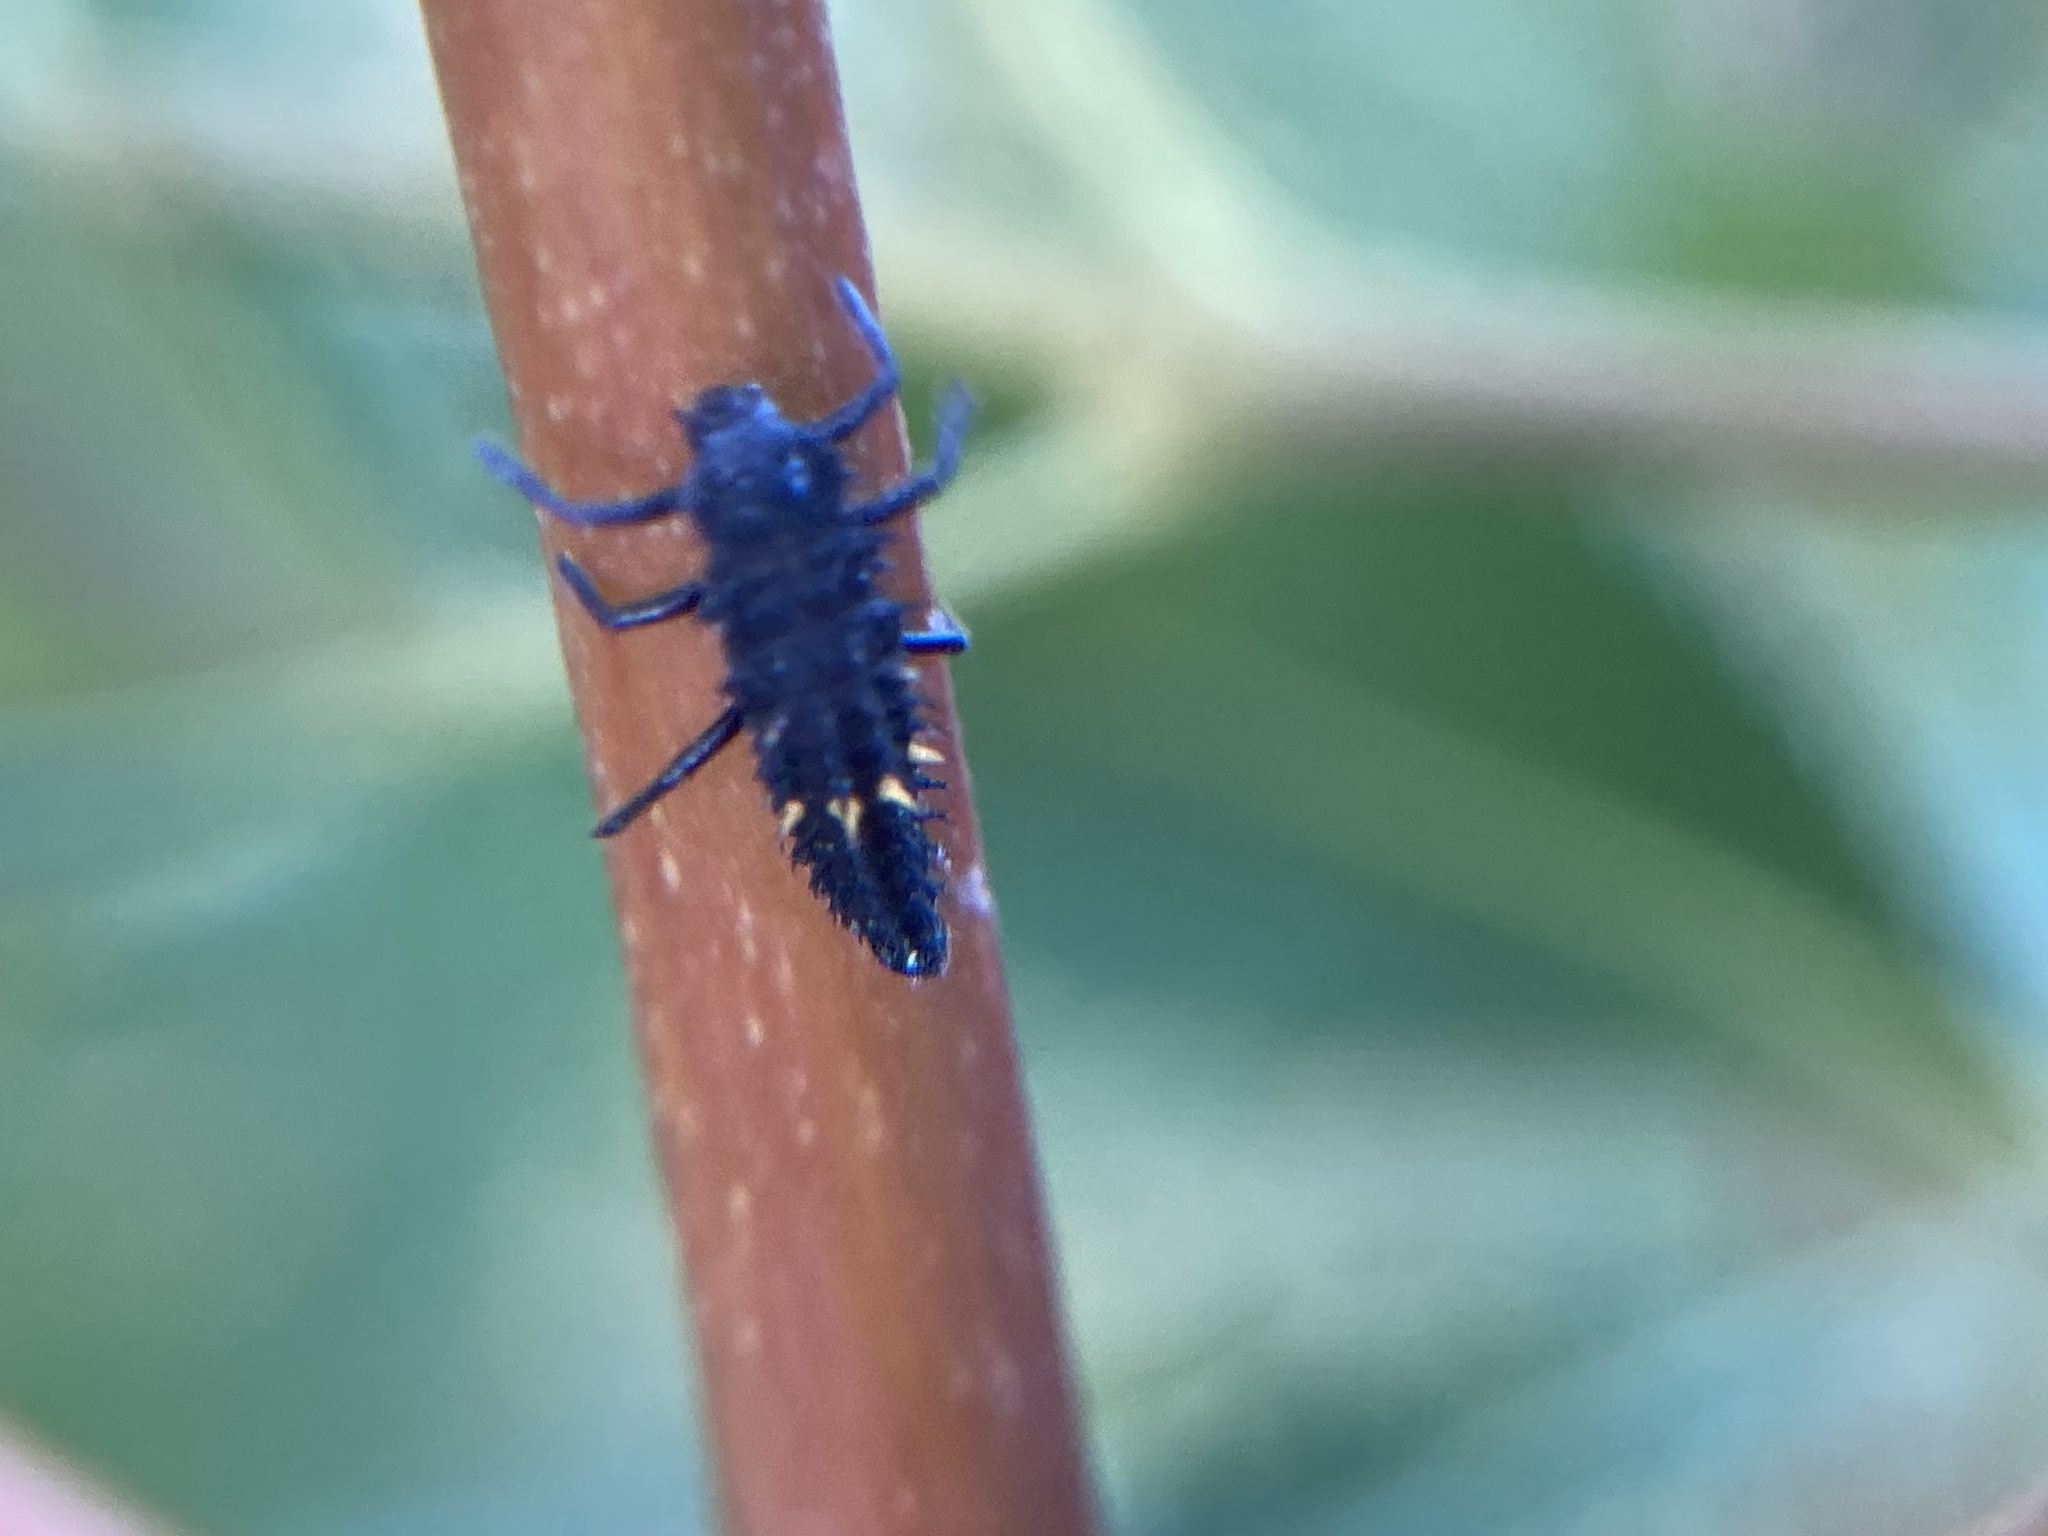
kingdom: Animalia
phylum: Arthropoda
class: Insecta
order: Coleoptera
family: Coccinellidae
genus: Harmonia
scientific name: Harmonia conformis
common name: Common spotted ladybird beetle
